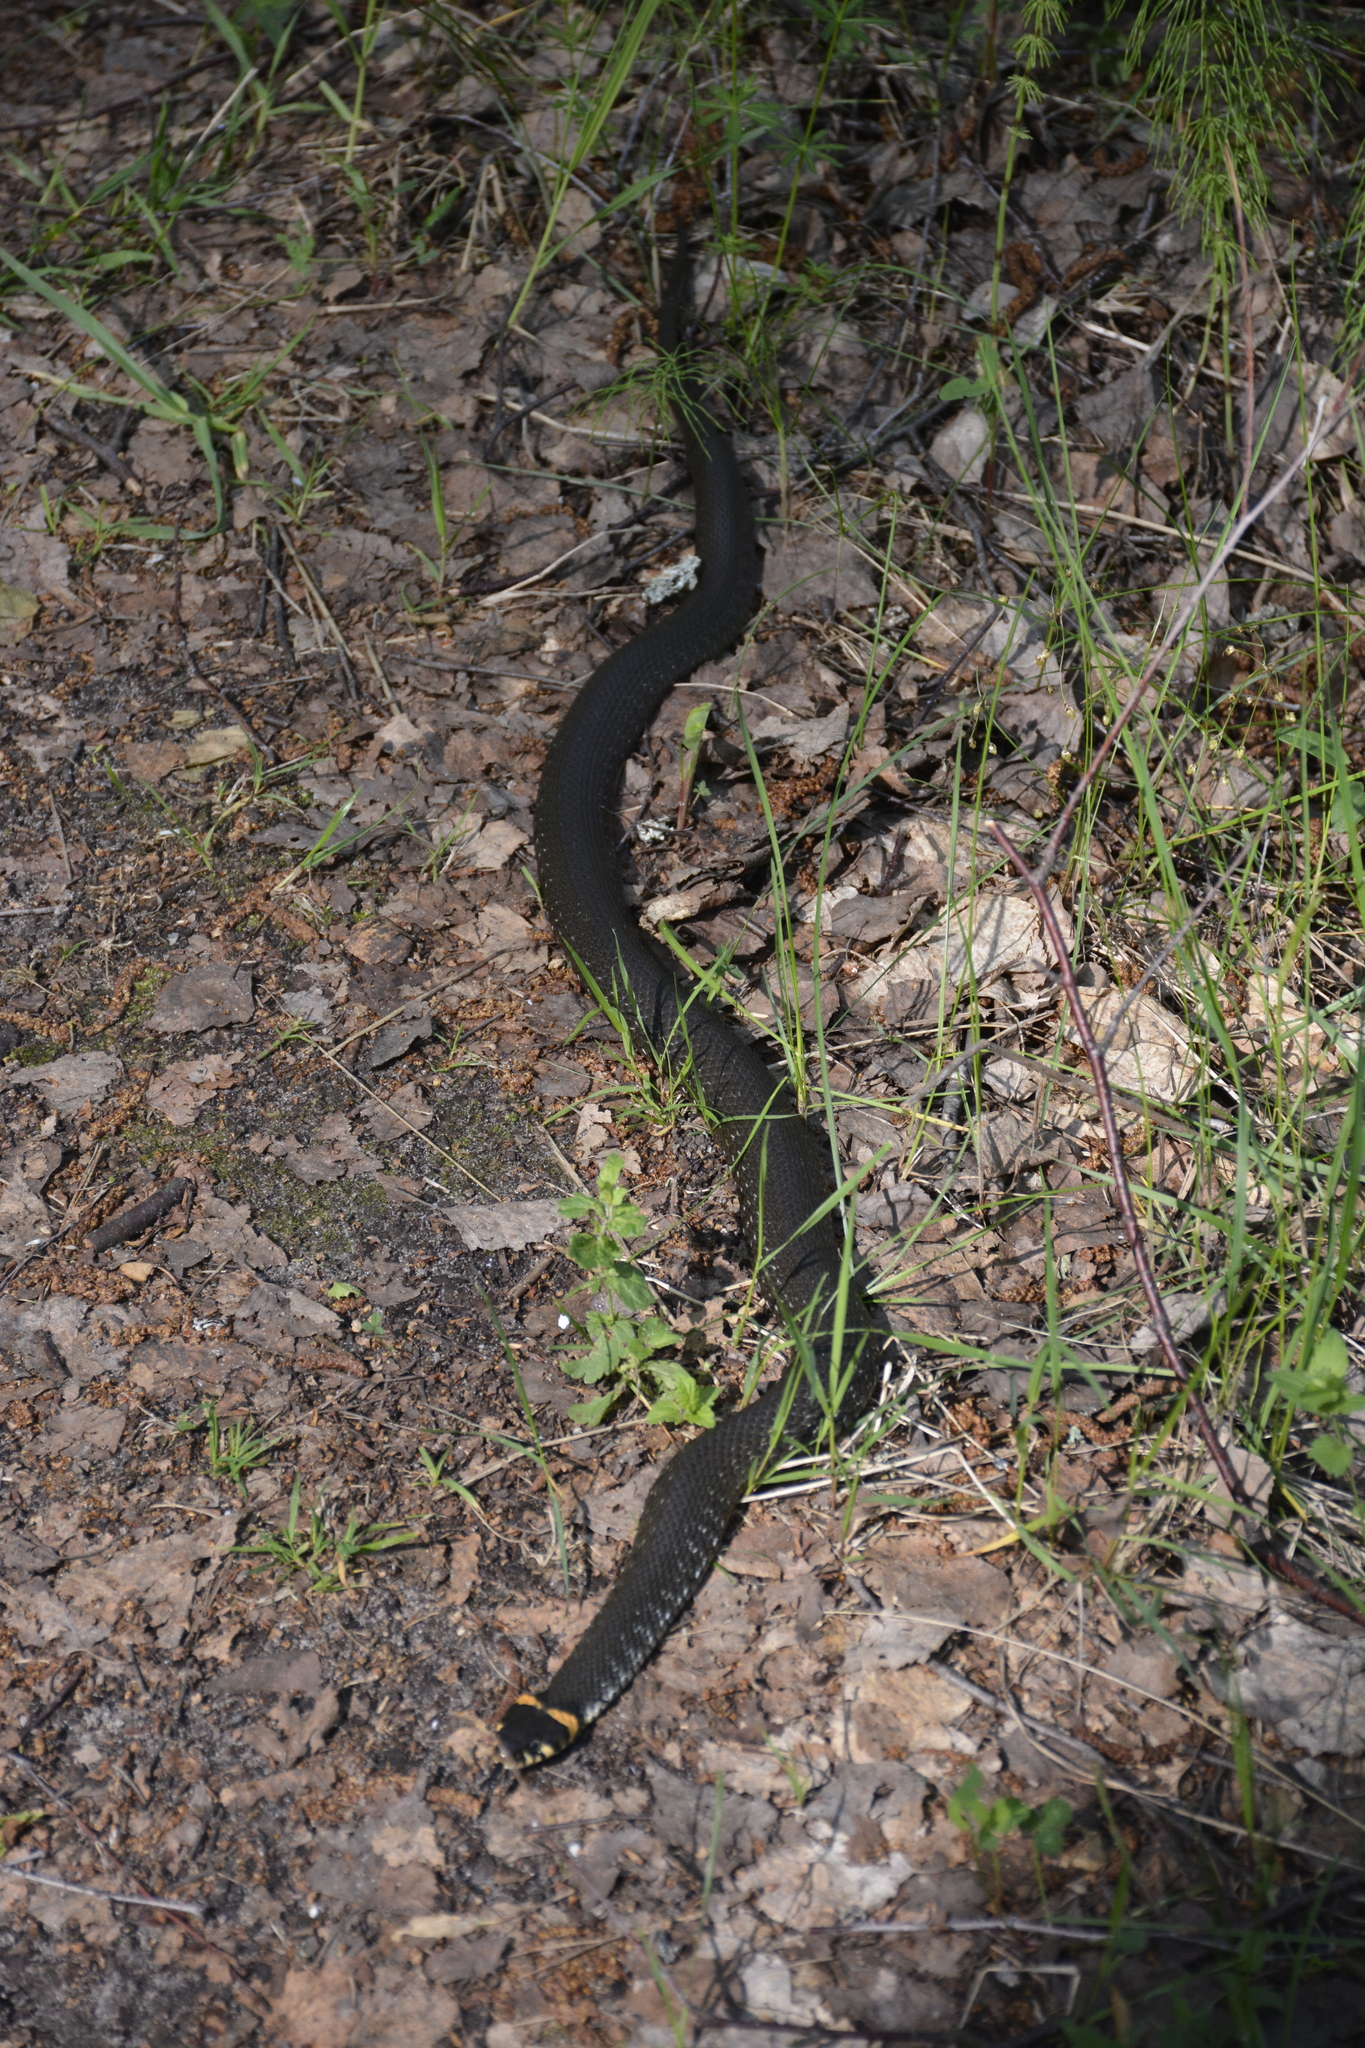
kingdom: Animalia
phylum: Chordata
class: Squamata
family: Colubridae
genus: Natrix
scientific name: Natrix natrix
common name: Grass snake
